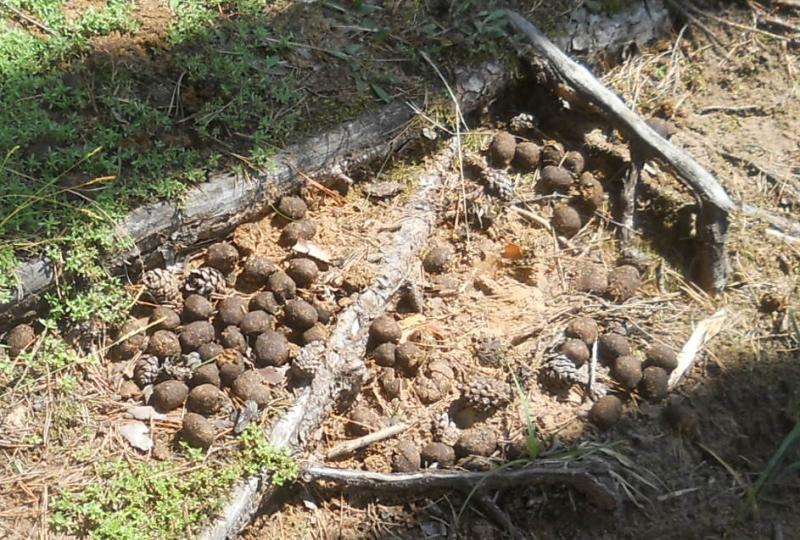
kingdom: Animalia
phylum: Chordata
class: Mammalia
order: Artiodactyla
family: Cervidae
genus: Alces
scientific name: Alces alces
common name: Moose
